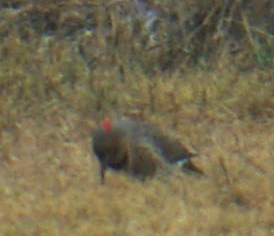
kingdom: Animalia
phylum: Chordata
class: Aves
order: Piciformes
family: Picidae
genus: Colaptes
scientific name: Colaptes auratus
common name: Northern flicker
